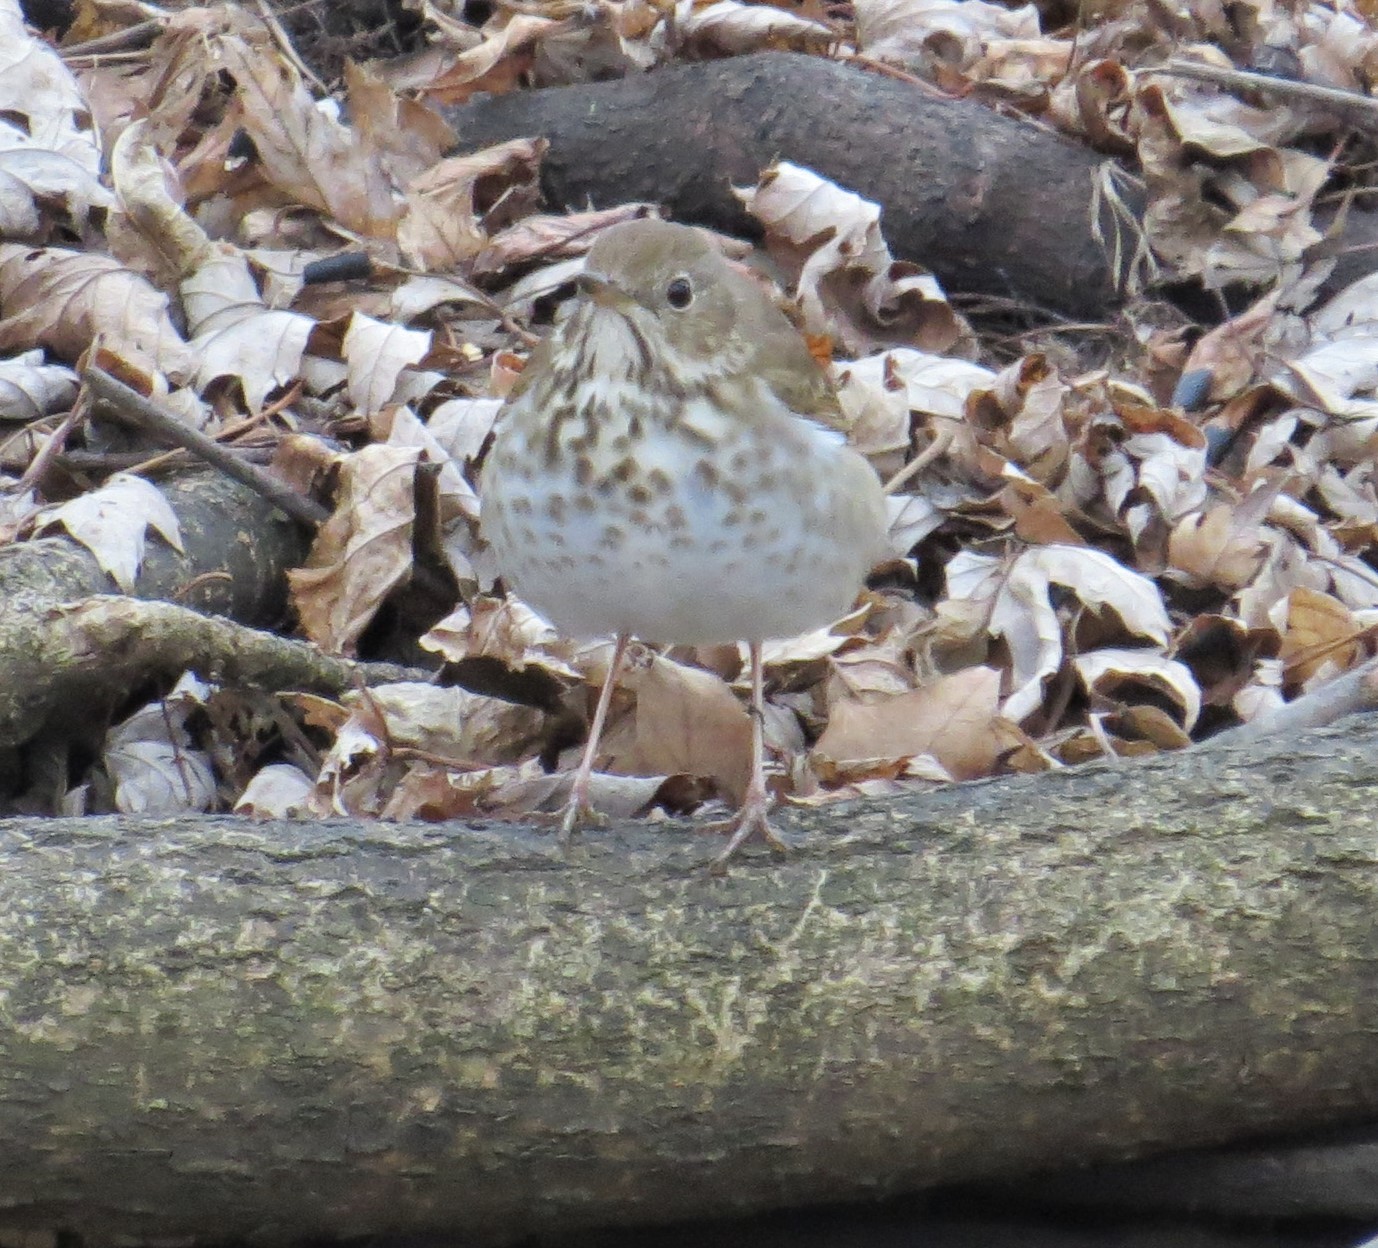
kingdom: Animalia
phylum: Chordata
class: Aves
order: Passeriformes
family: Turdidae
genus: Catharus
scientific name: Catharus guttatus
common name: Hermit thrush
